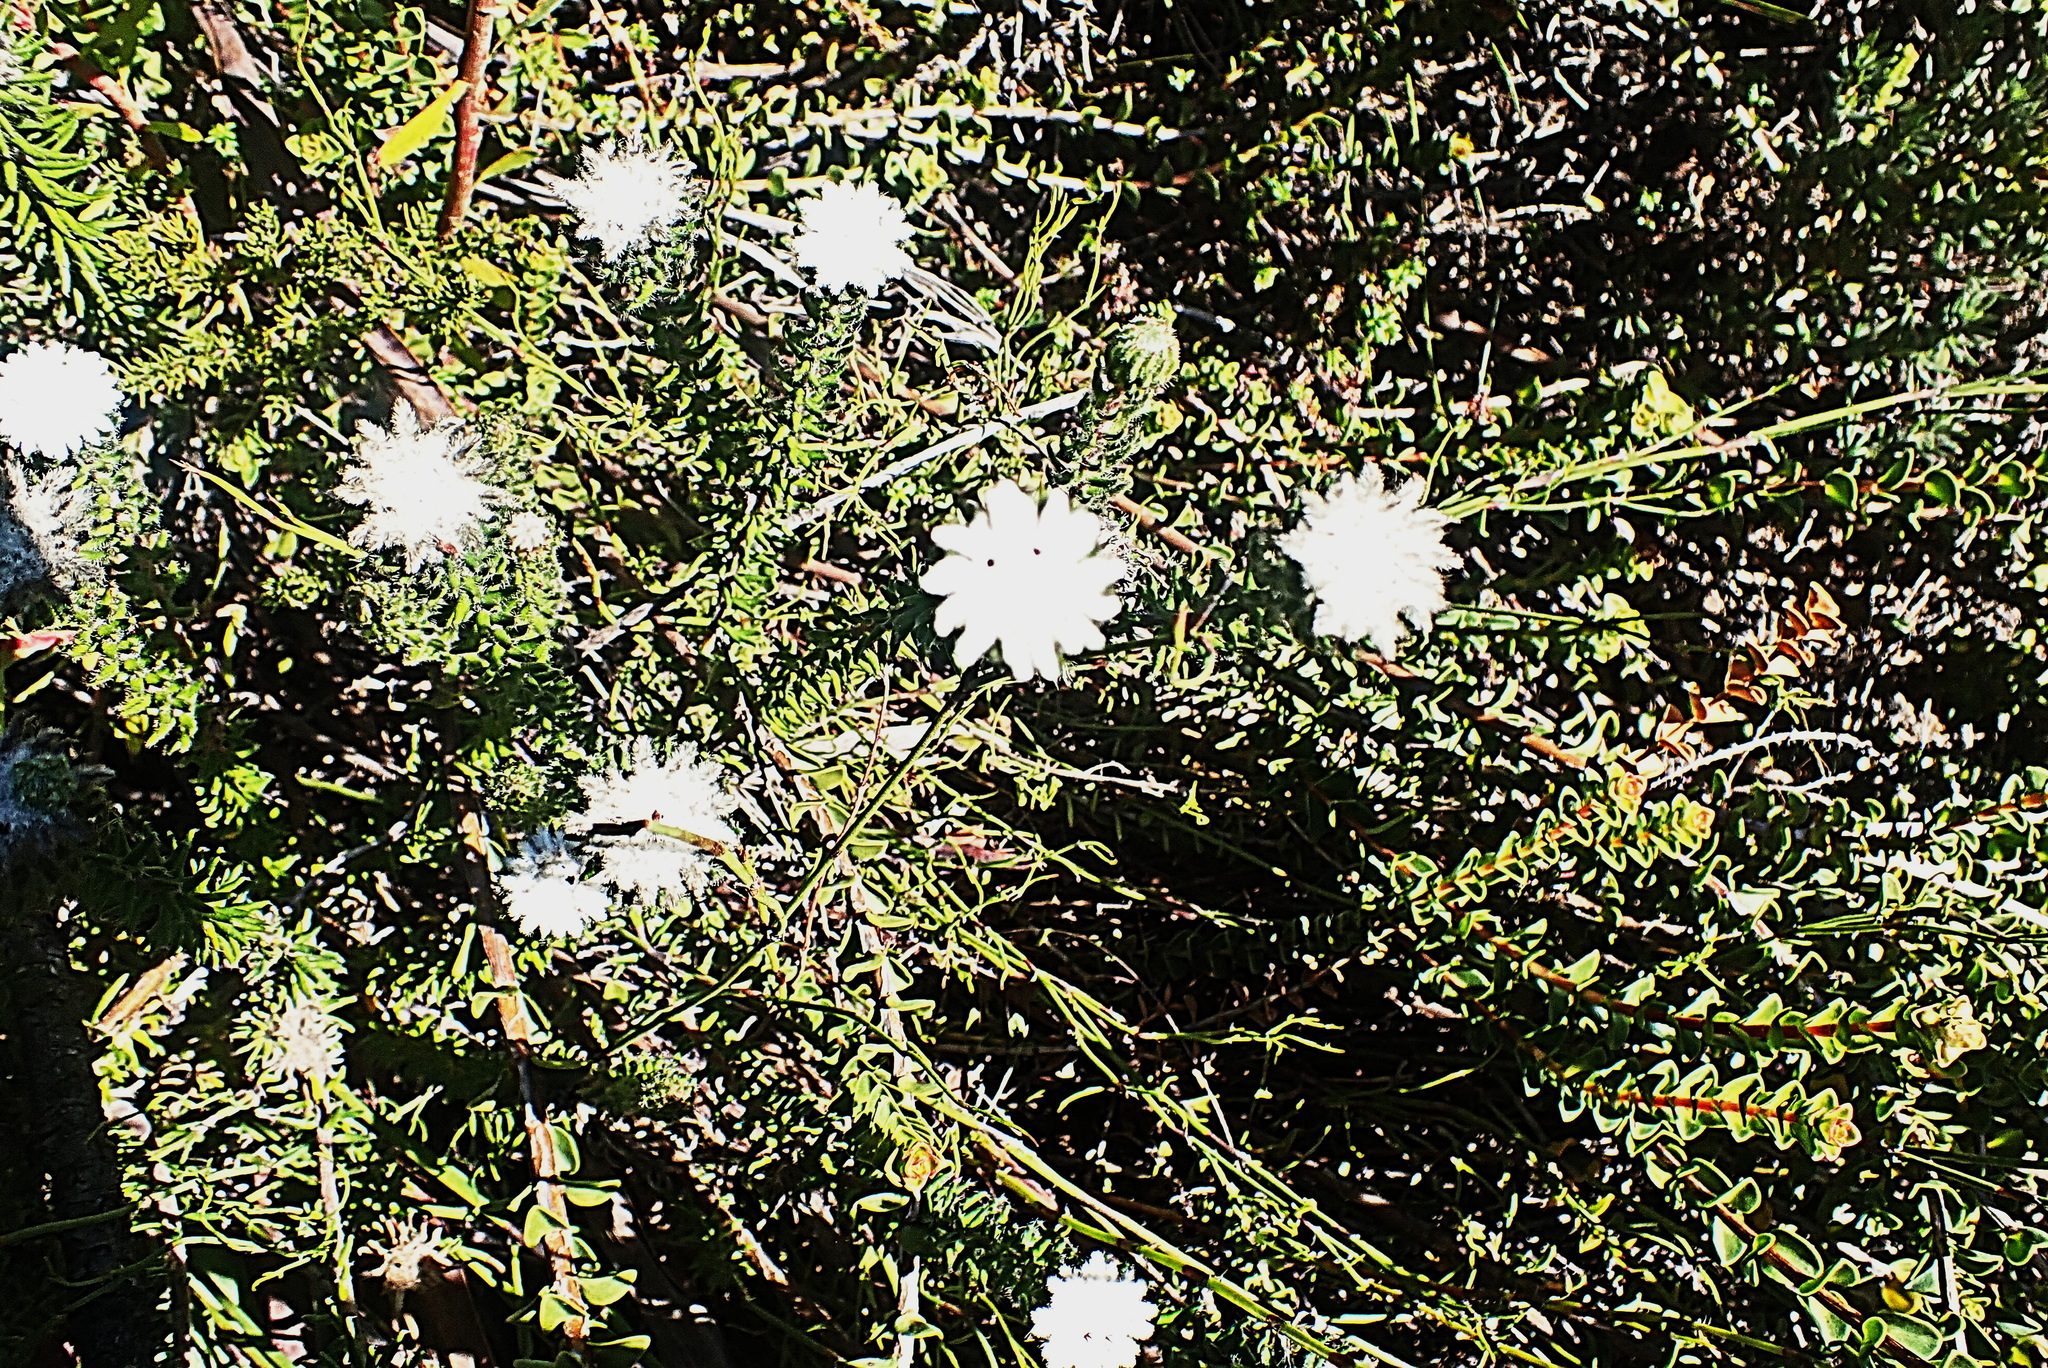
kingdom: Plantae
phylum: Tracheophyta
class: Magnoliopsida
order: Rosales
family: Rhamnaceae
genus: Phylica
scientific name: Phylica curvifolia
